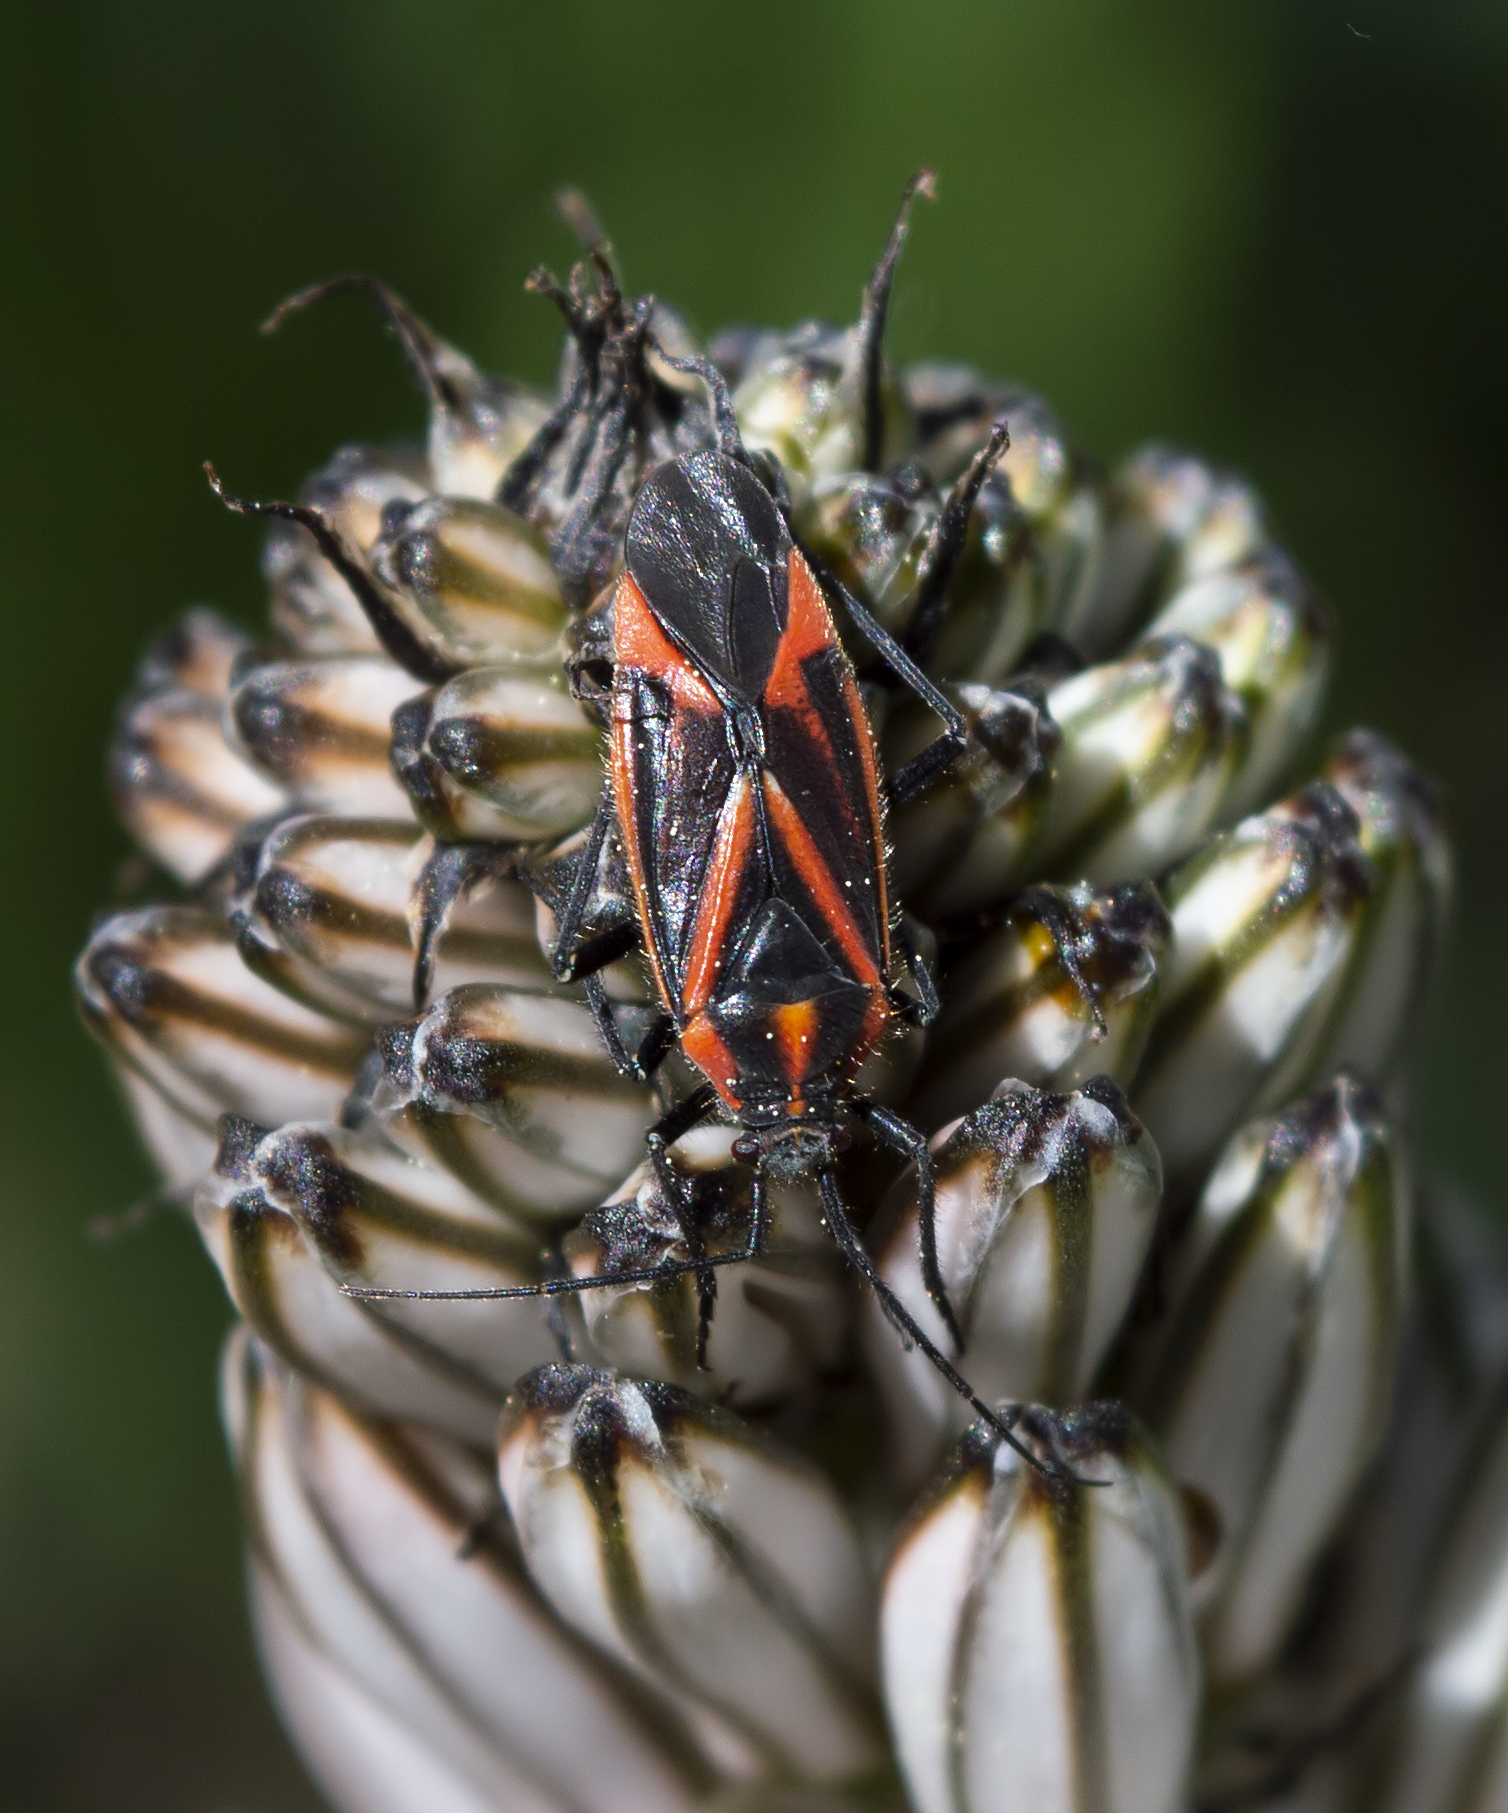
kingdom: Animalia
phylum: Arthropoda
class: Insecta
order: Hemiptera
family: Miridae
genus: Horistus
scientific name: Horistus infuscatus
